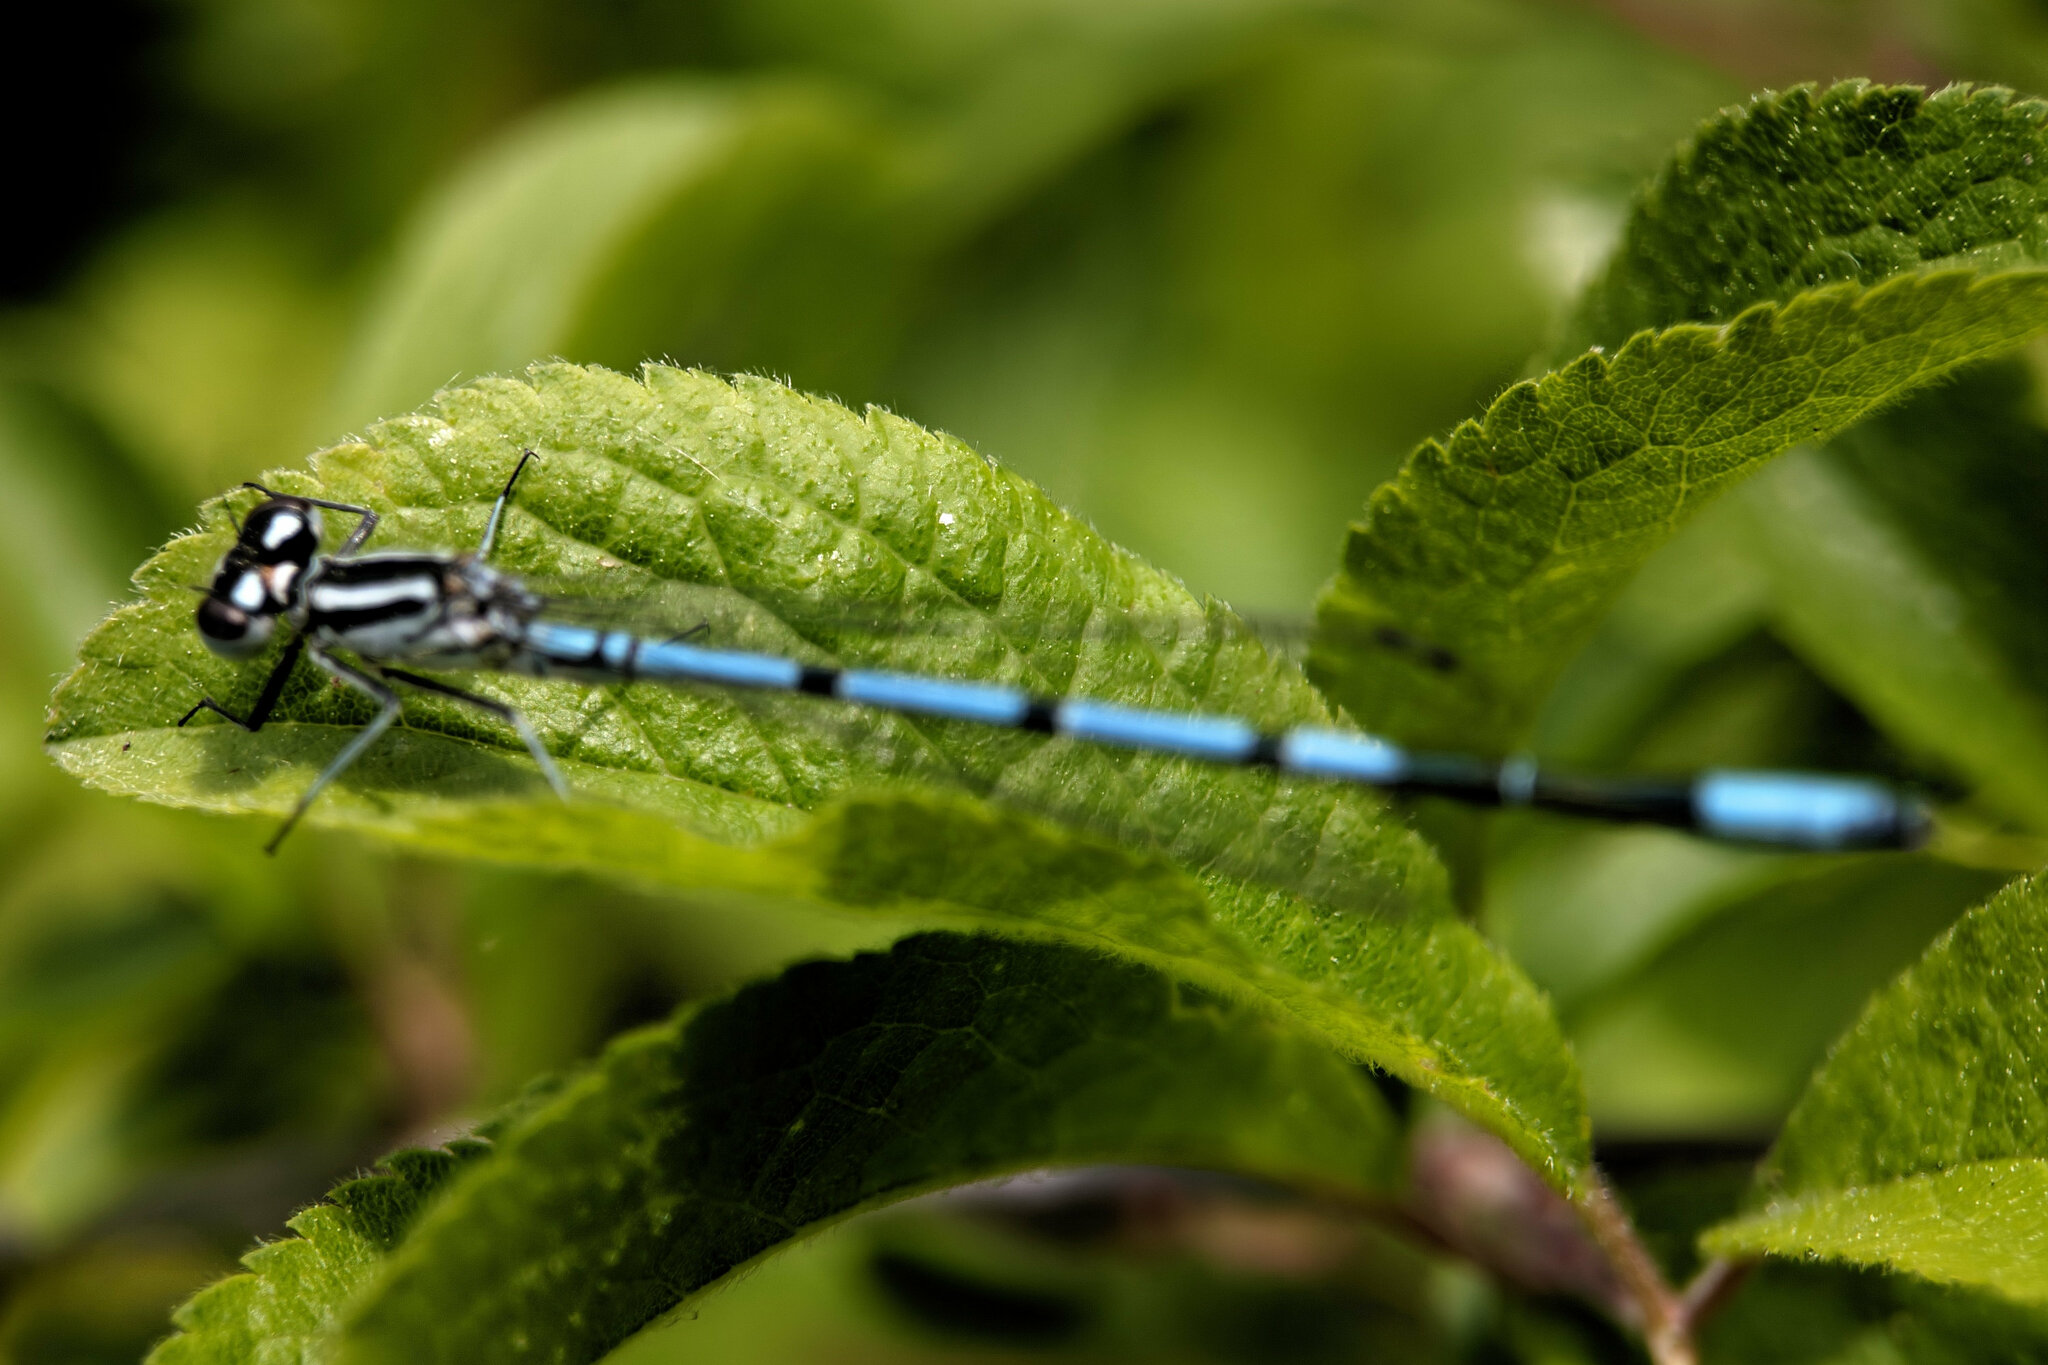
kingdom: Animalia
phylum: Arthropoda
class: Insecta
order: Odonata
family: Coenagrionidae
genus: Coenagrion
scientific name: Coenagrion puella
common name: Azure damselfly
